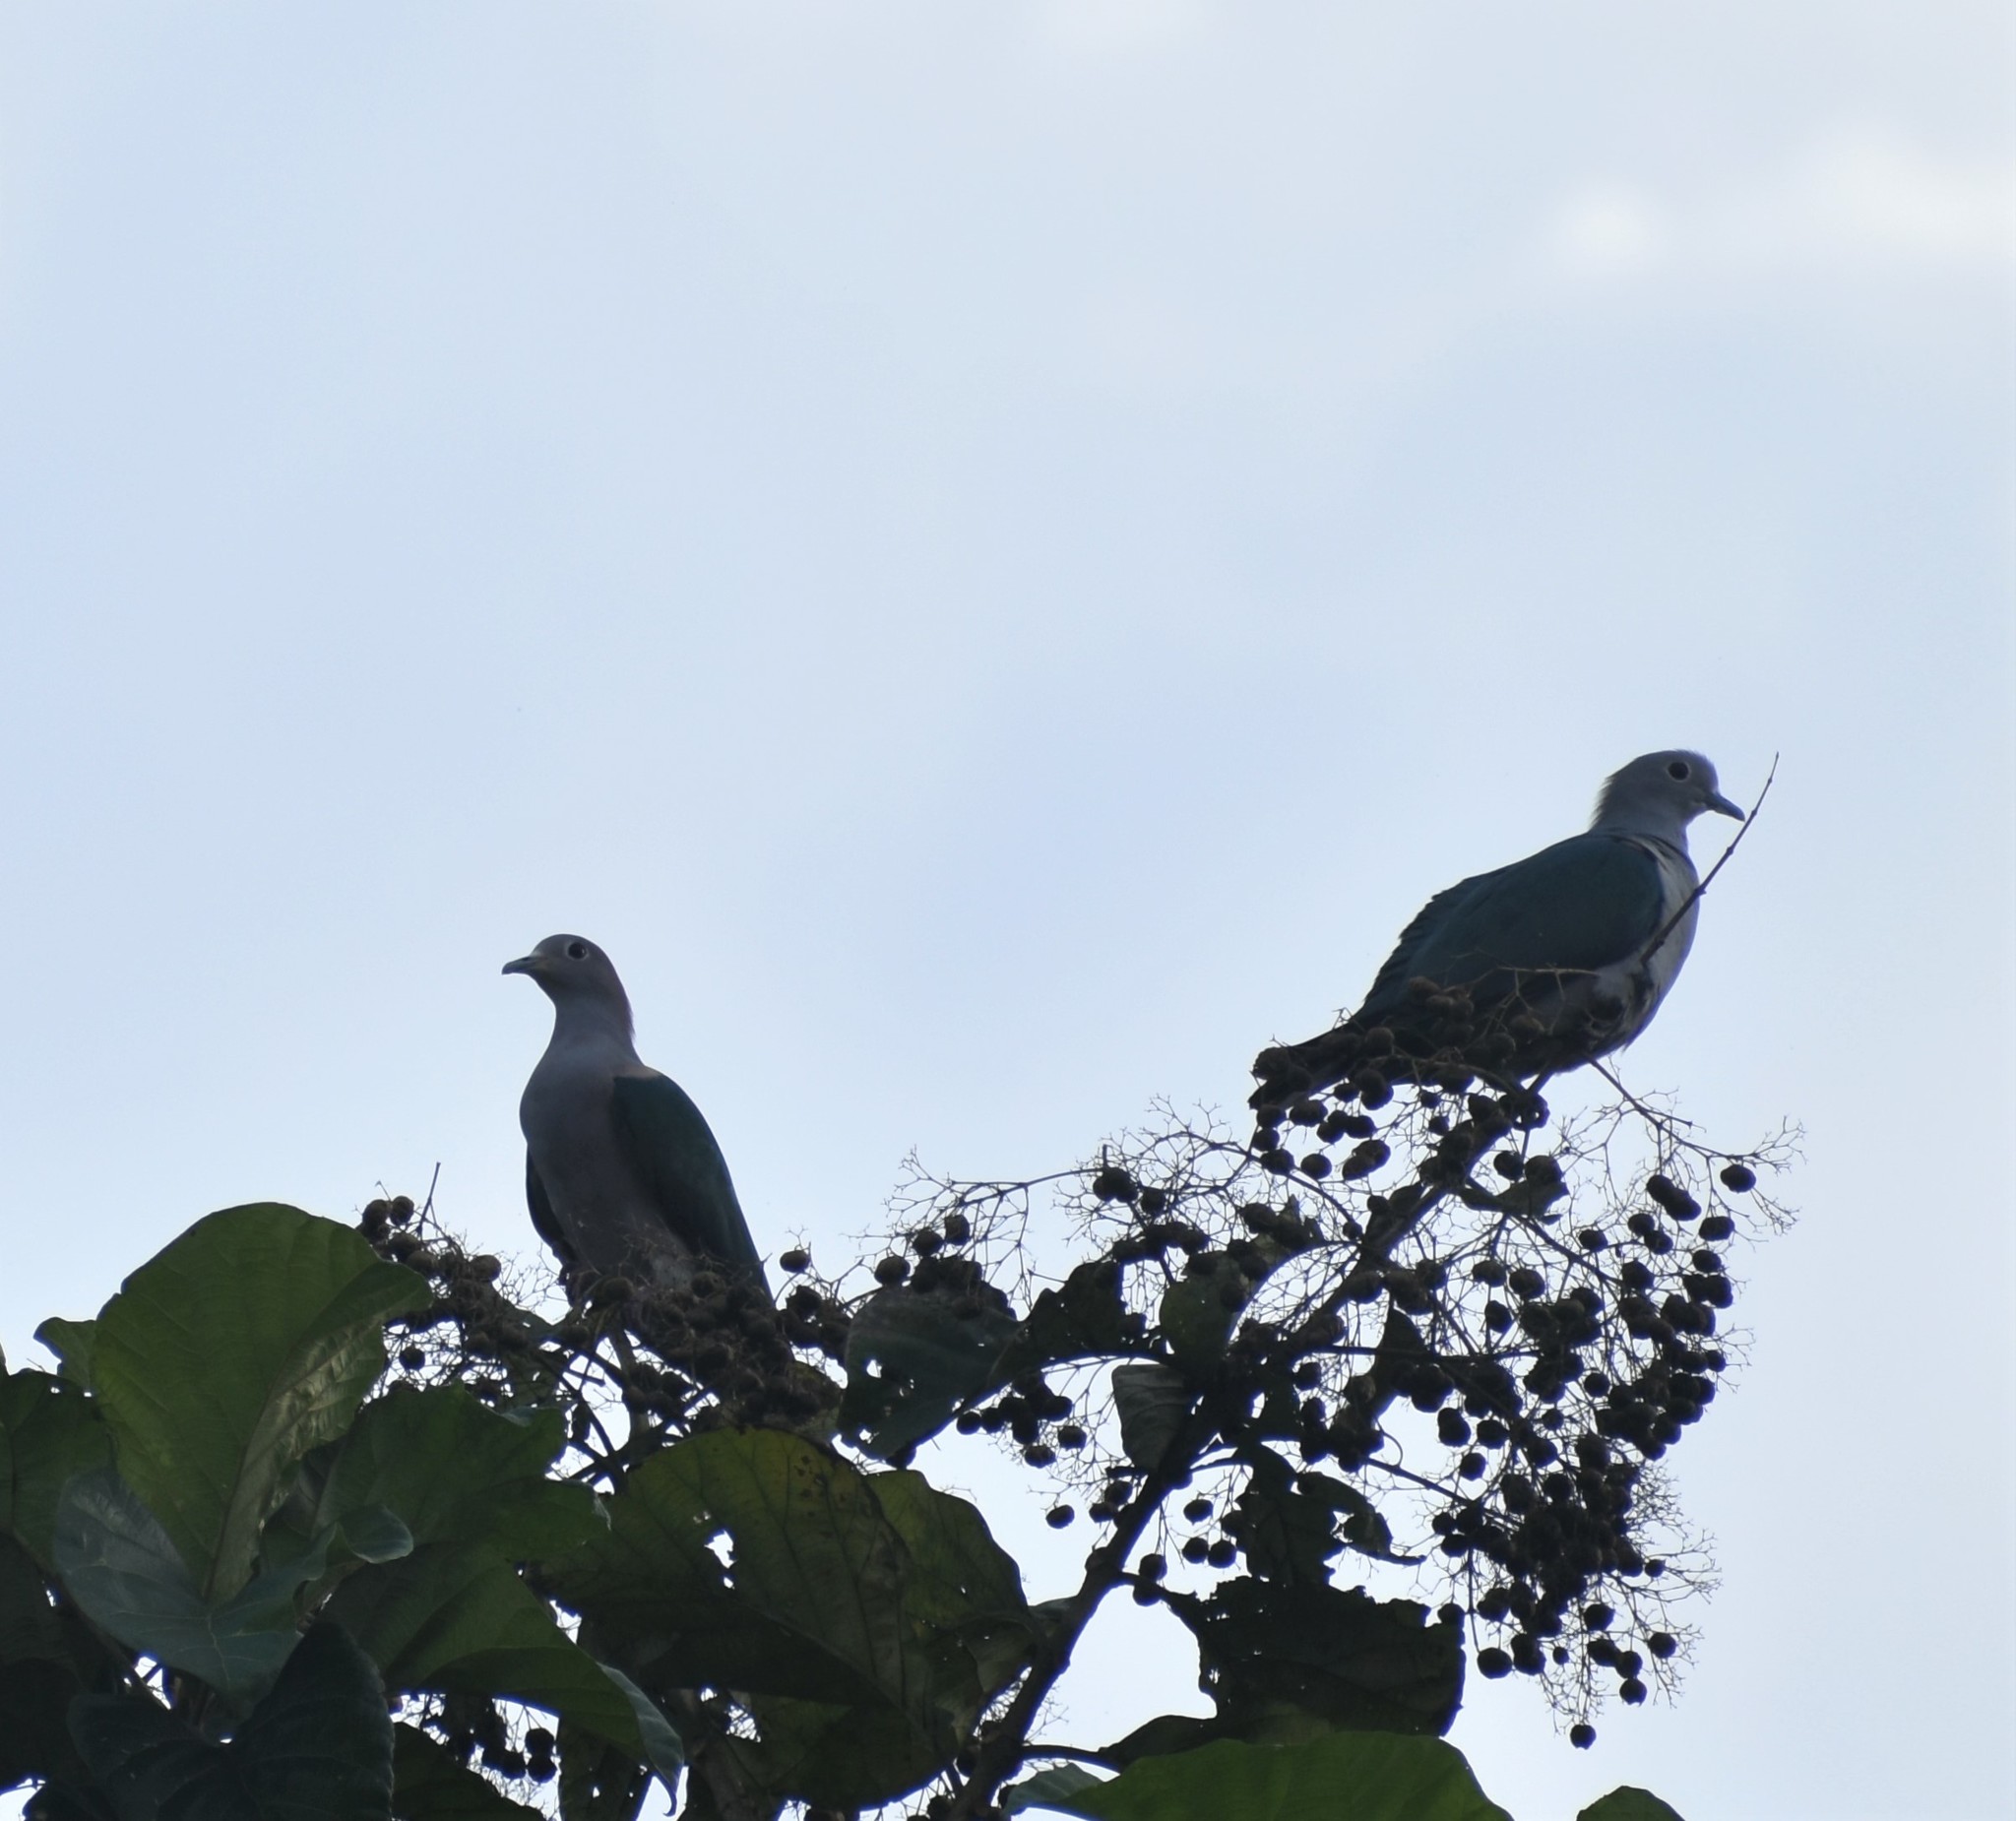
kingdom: Animalia
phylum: Chordata
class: Aves
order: Columbiformes
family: Columbidae
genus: Ducula
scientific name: Ducula aenea
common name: Green imperial pigeon
